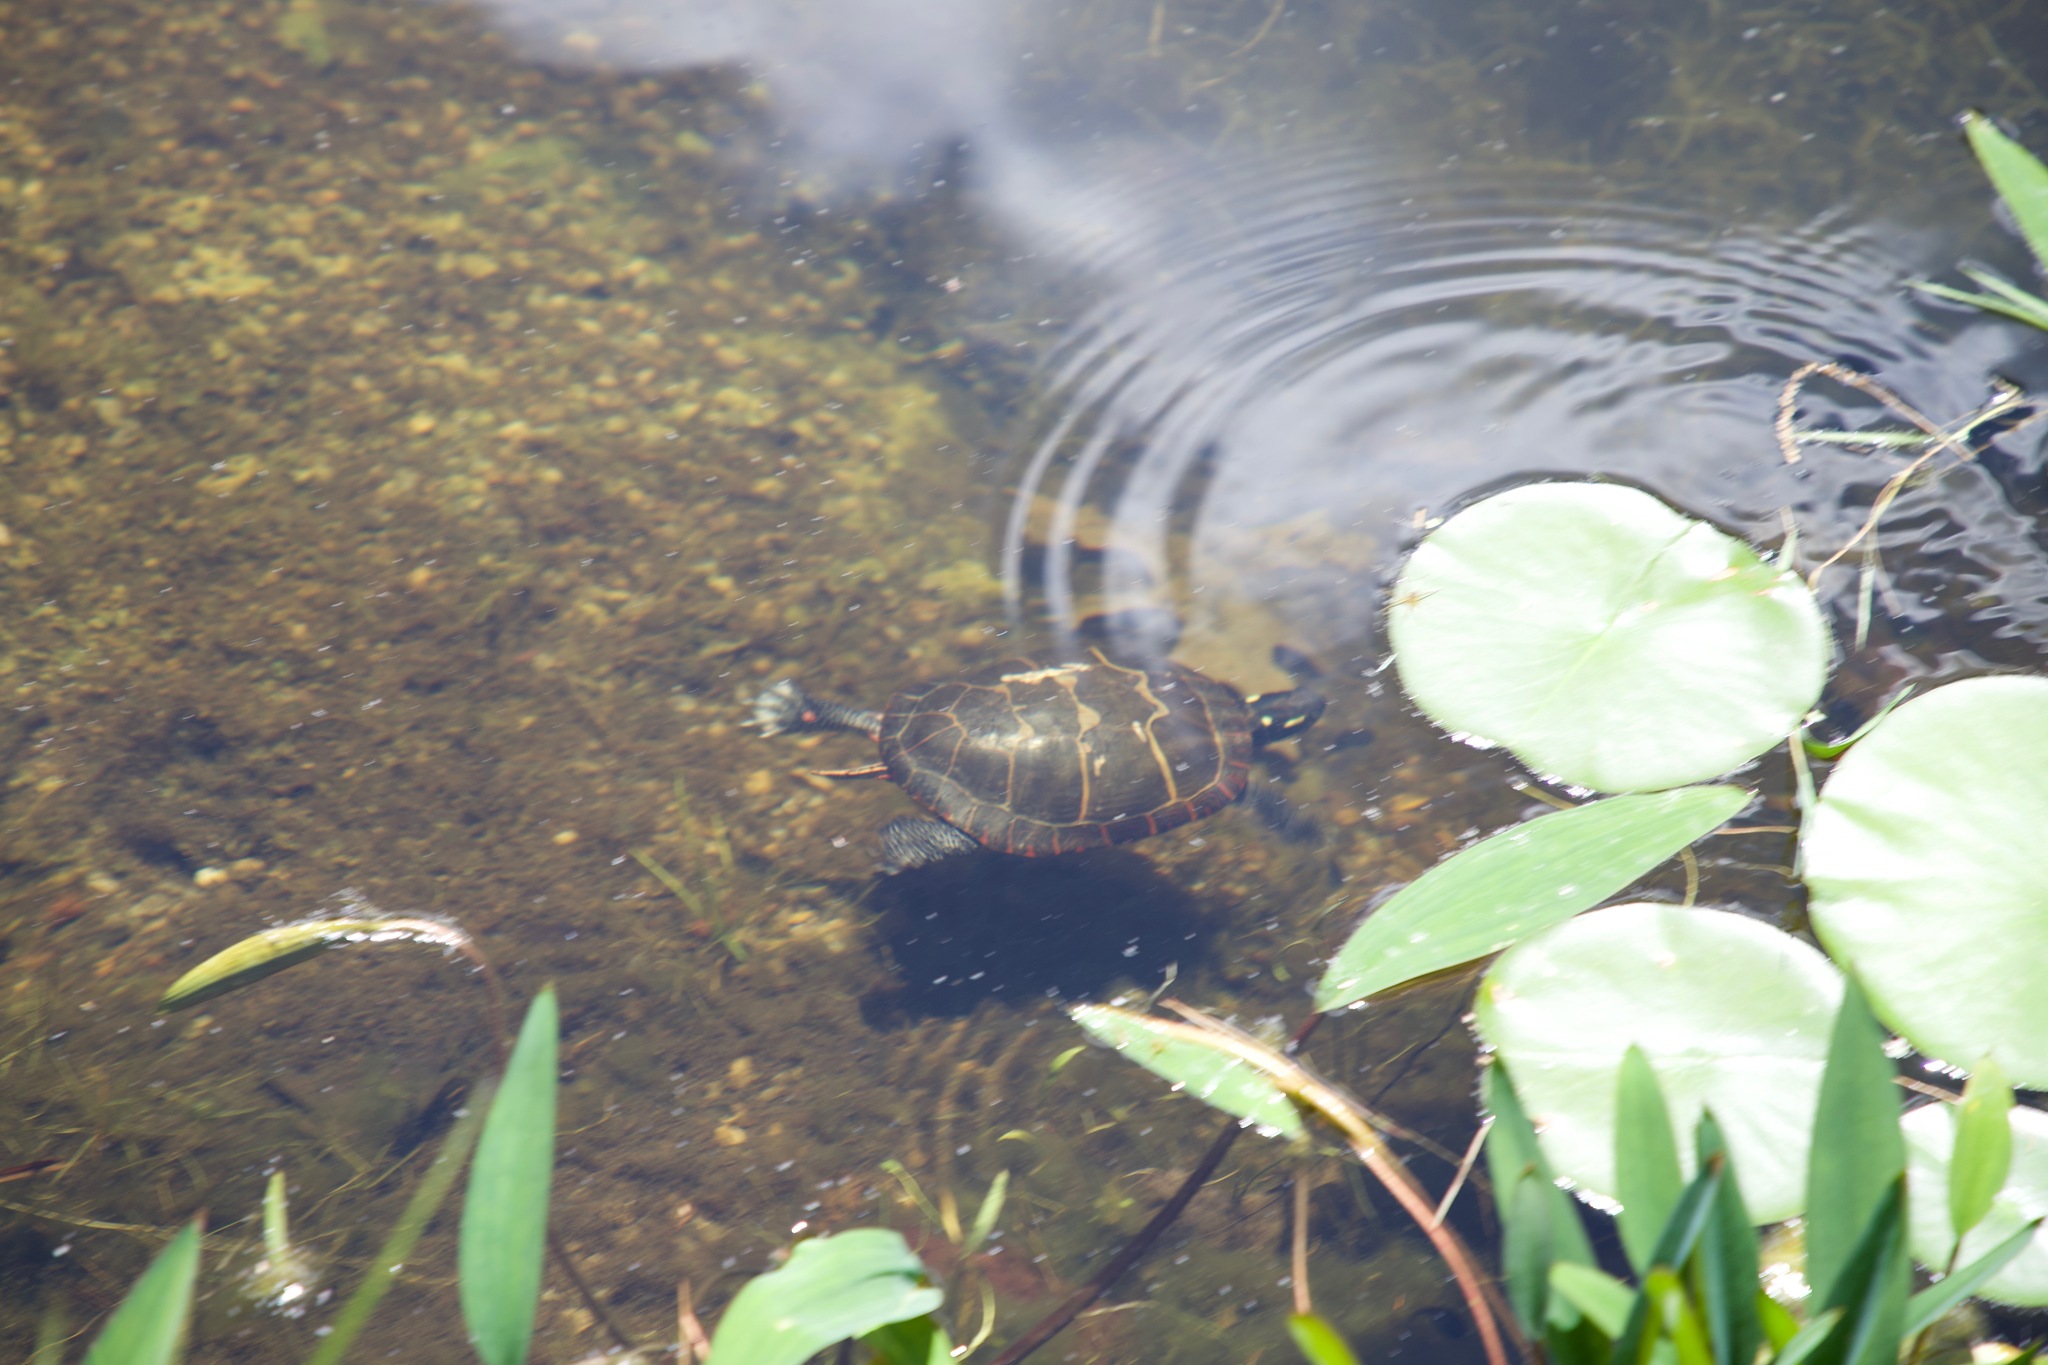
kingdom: Animalia
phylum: Chordata
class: Testudines
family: Emydidae
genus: Chrysemys
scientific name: Chrysemys picta
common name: Painted turtle
